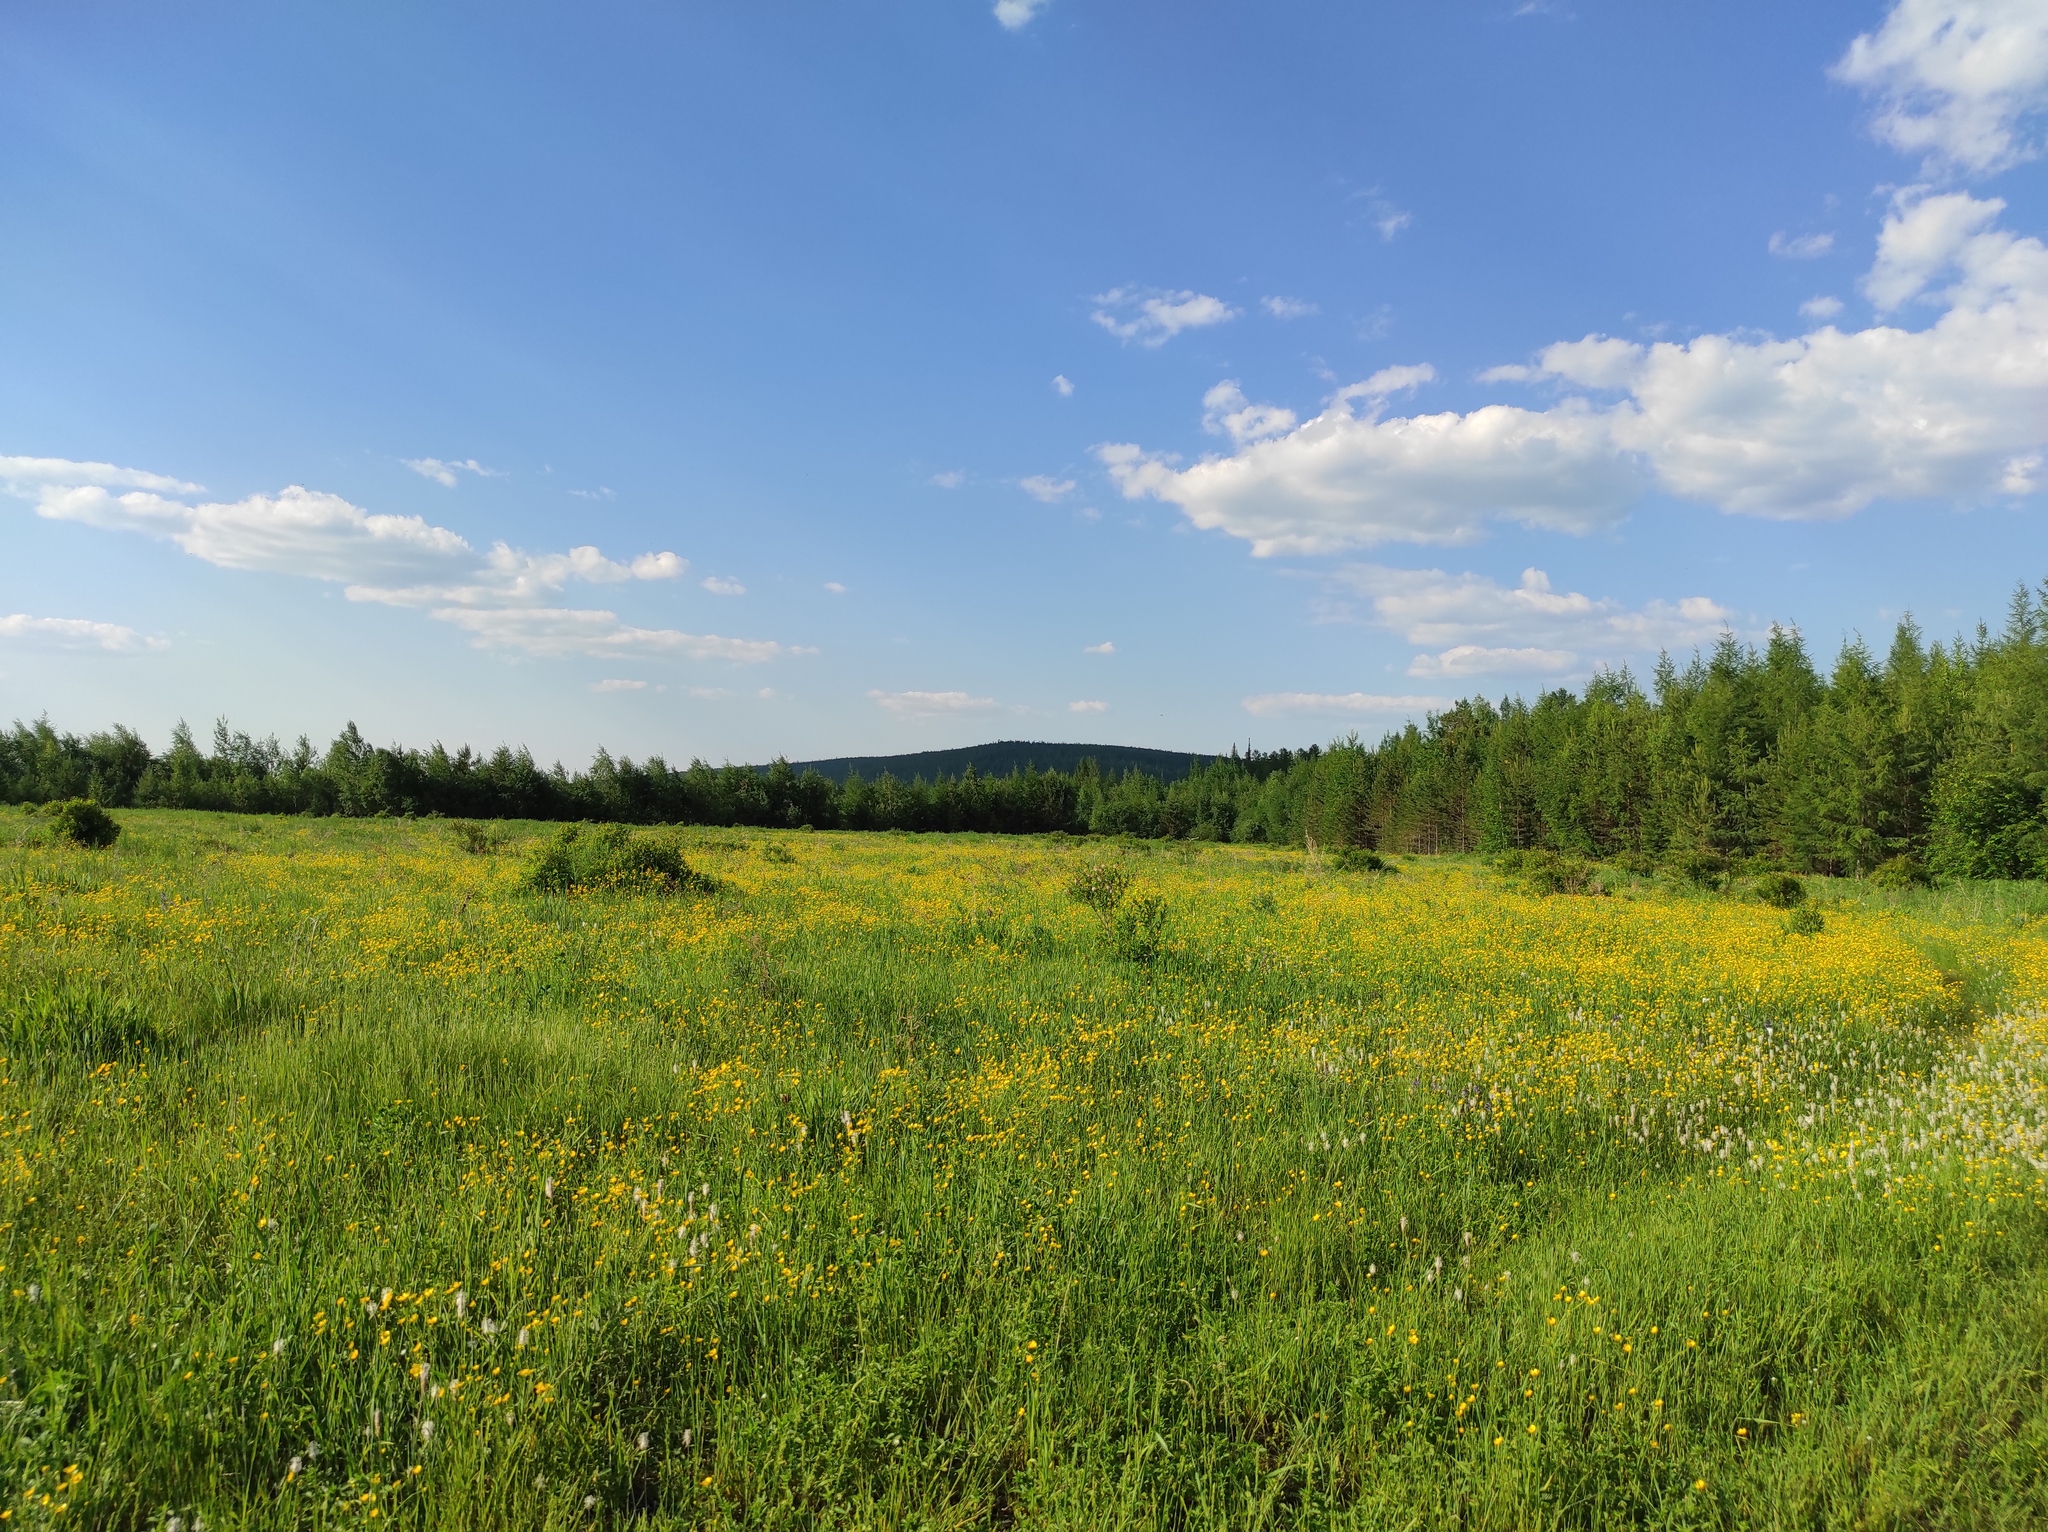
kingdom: Plantae
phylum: Tracheophyta
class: Magnoliopsida
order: Lamiales
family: Lamiaceae
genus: Dracocephalum
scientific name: Dracocephalum nutans
